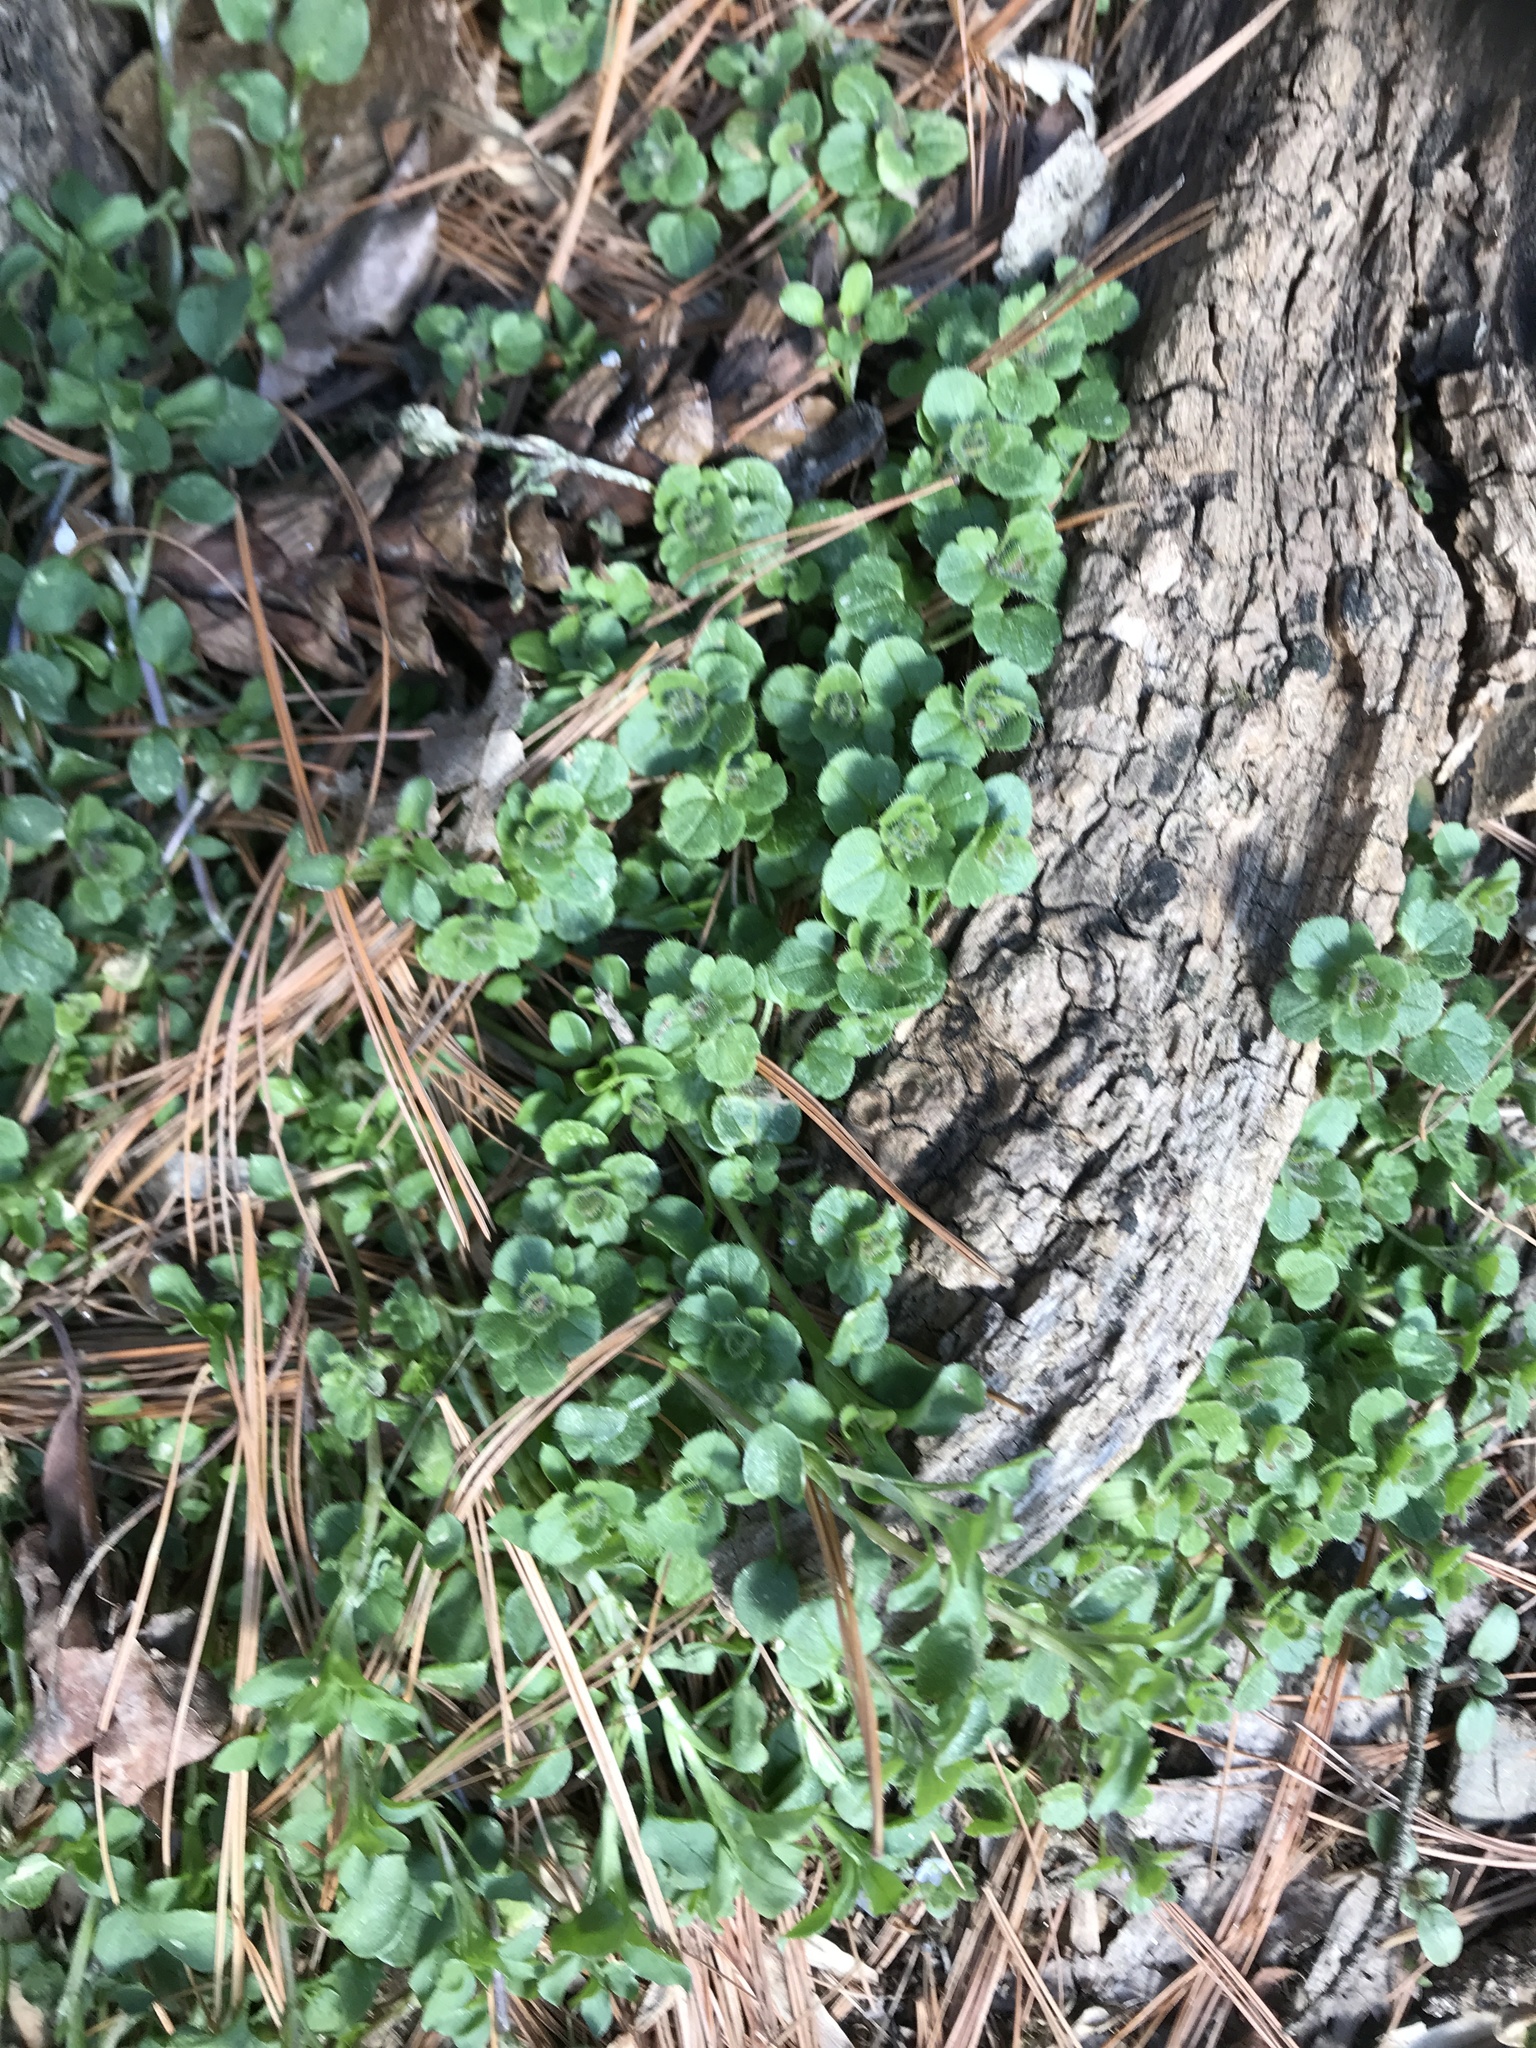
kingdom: Plantae
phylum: Tracheophyta
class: Magnoliopsida
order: Lamiales
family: Plantaginaceae
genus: Veronica
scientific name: Veronica hederifolia
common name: Ivy-leaved speedwell
